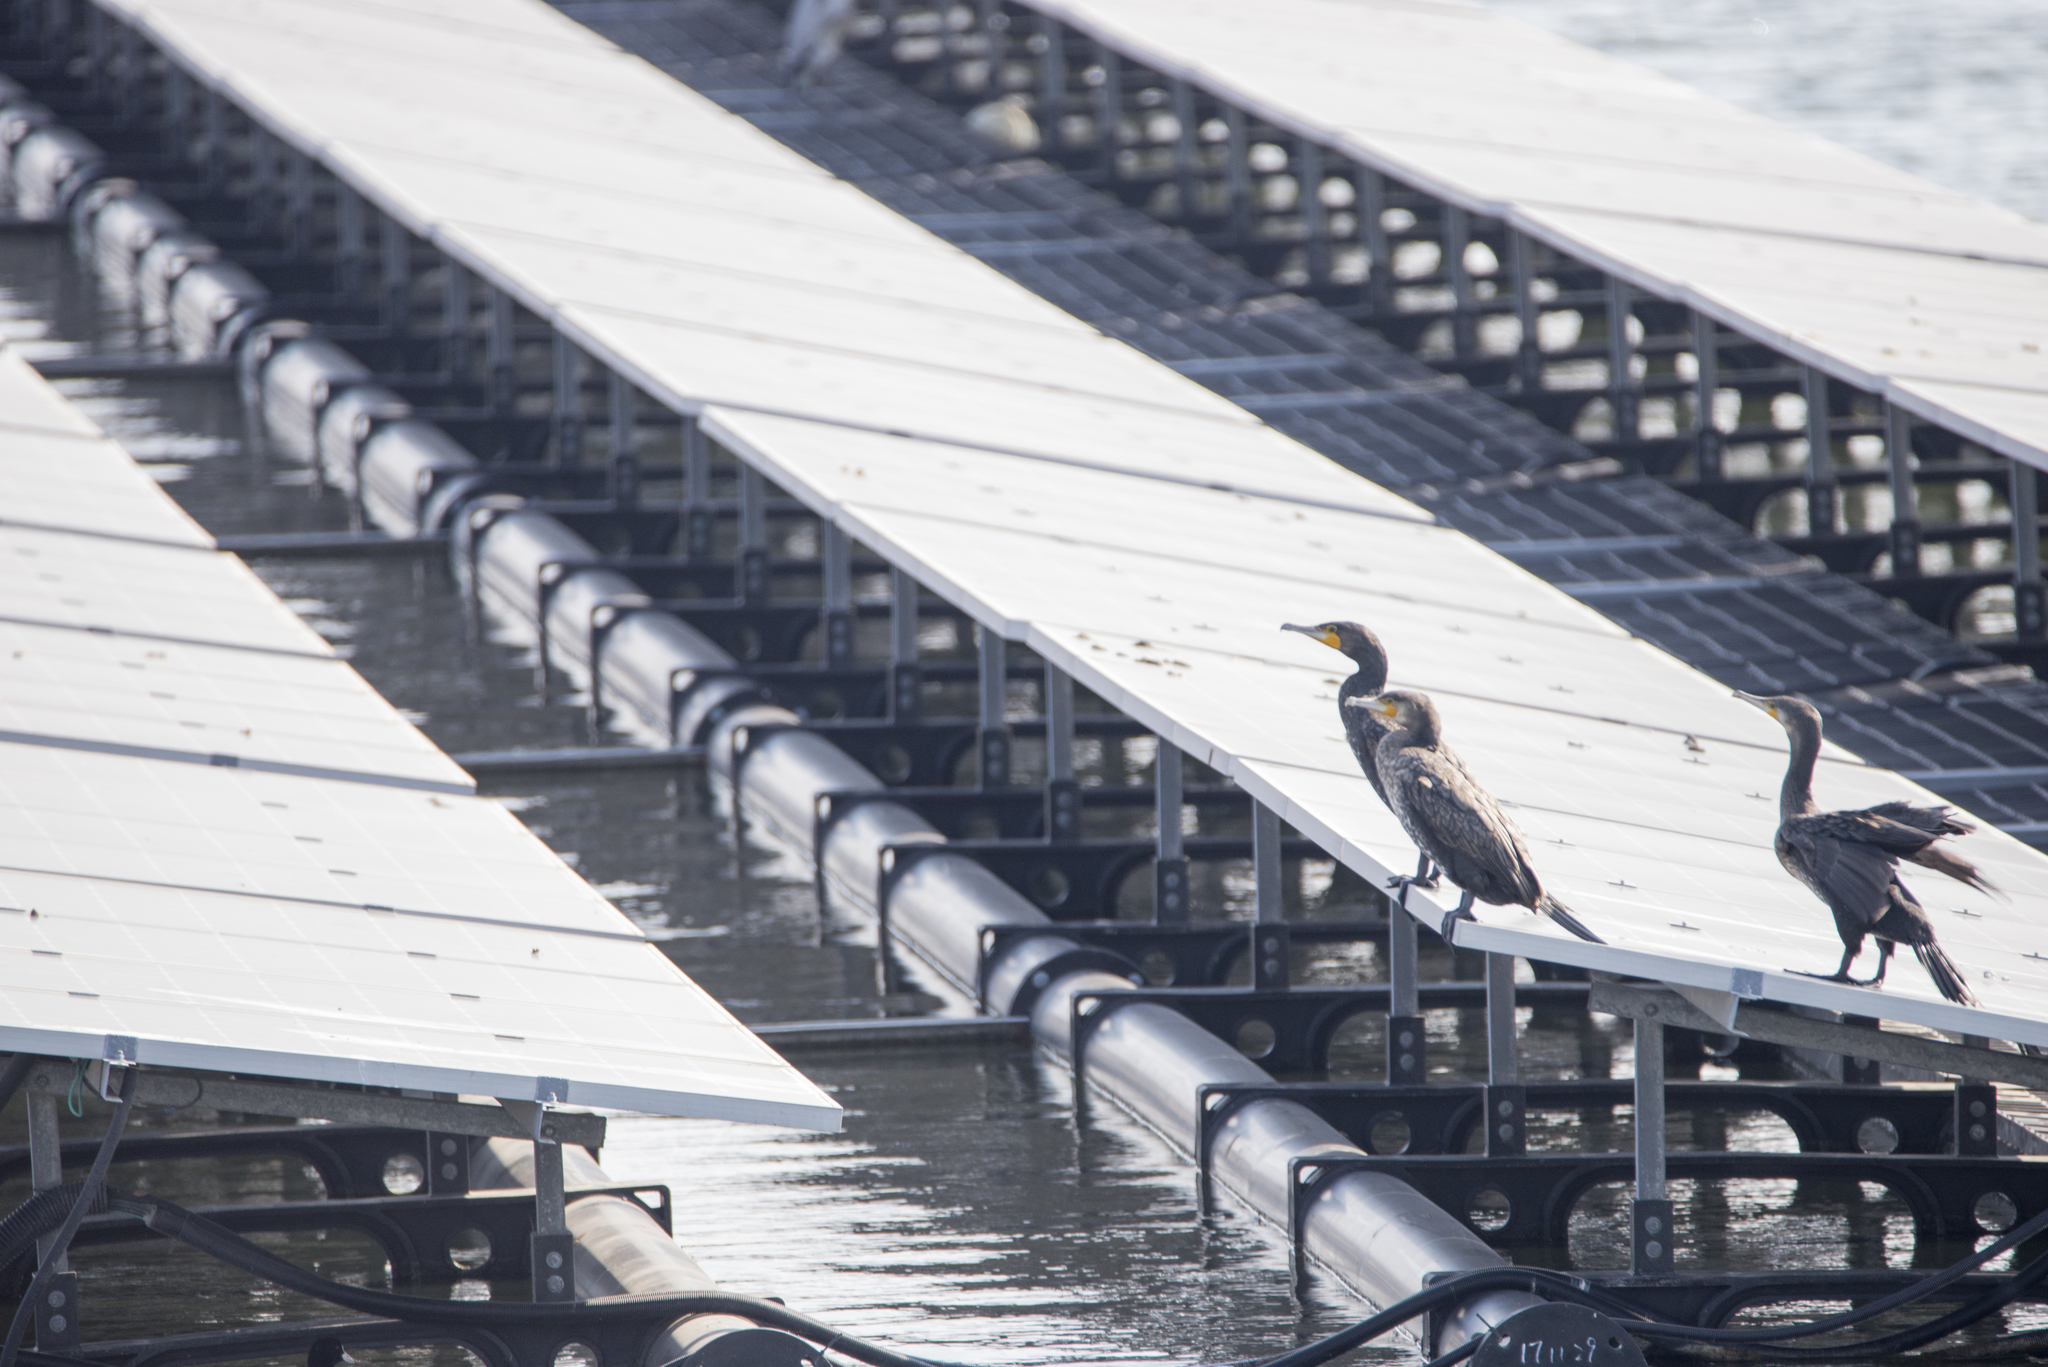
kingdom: Animalia
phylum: Chordata
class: Aves
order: Suliformes
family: Phalacrocoracidae
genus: Phalacrocorax
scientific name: Phalacrocorax carbo
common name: Great cormorant
